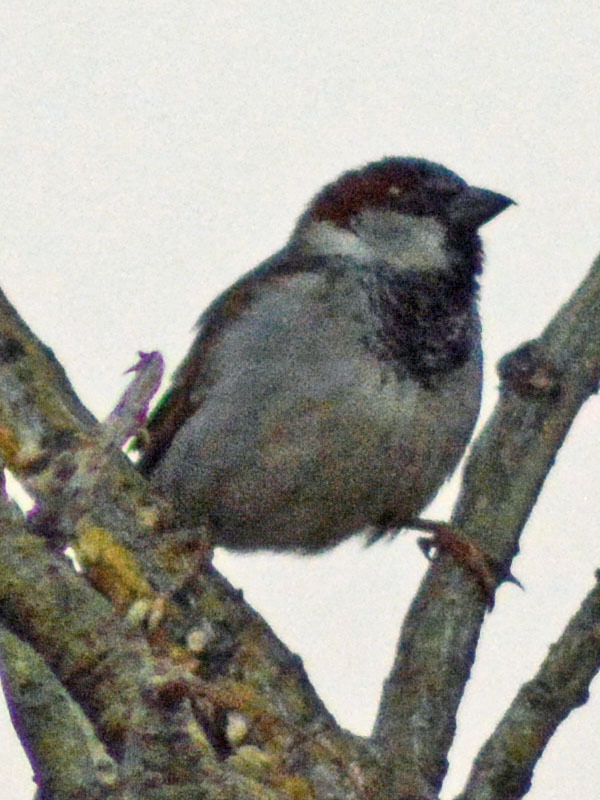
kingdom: Animalia
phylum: Chordata
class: Aves
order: Passeriformes
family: Passeridae
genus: Passer
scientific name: Passer domesticus
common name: House sparrow
